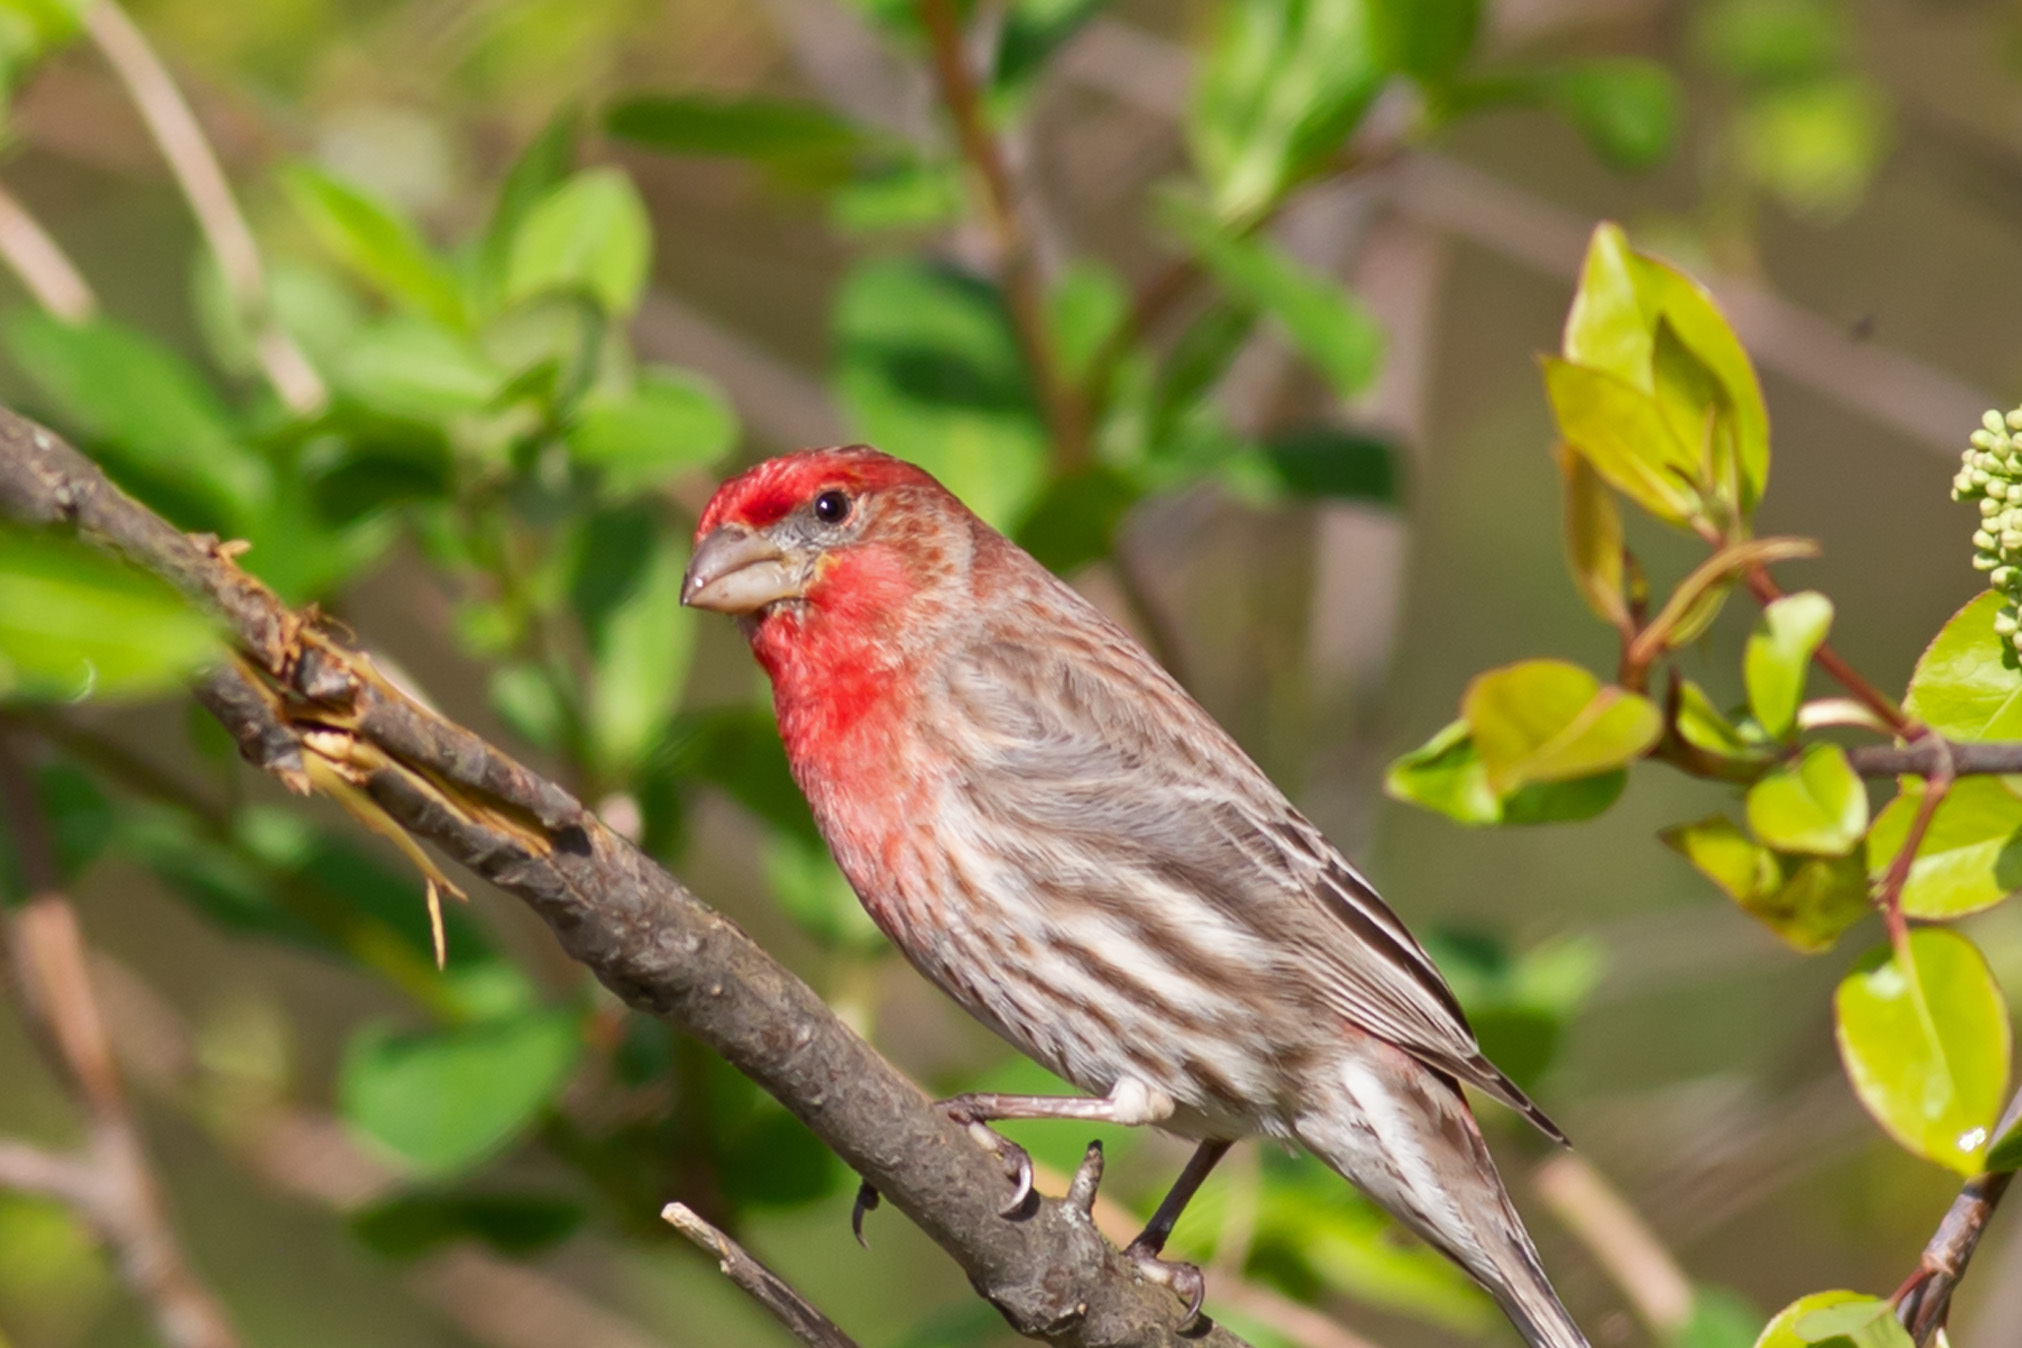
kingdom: Animalia
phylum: Chordata
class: Aves
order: Passeriformes
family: Fringillidae
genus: Haemorhous
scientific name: Haemorhous mexicanus
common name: House finch
